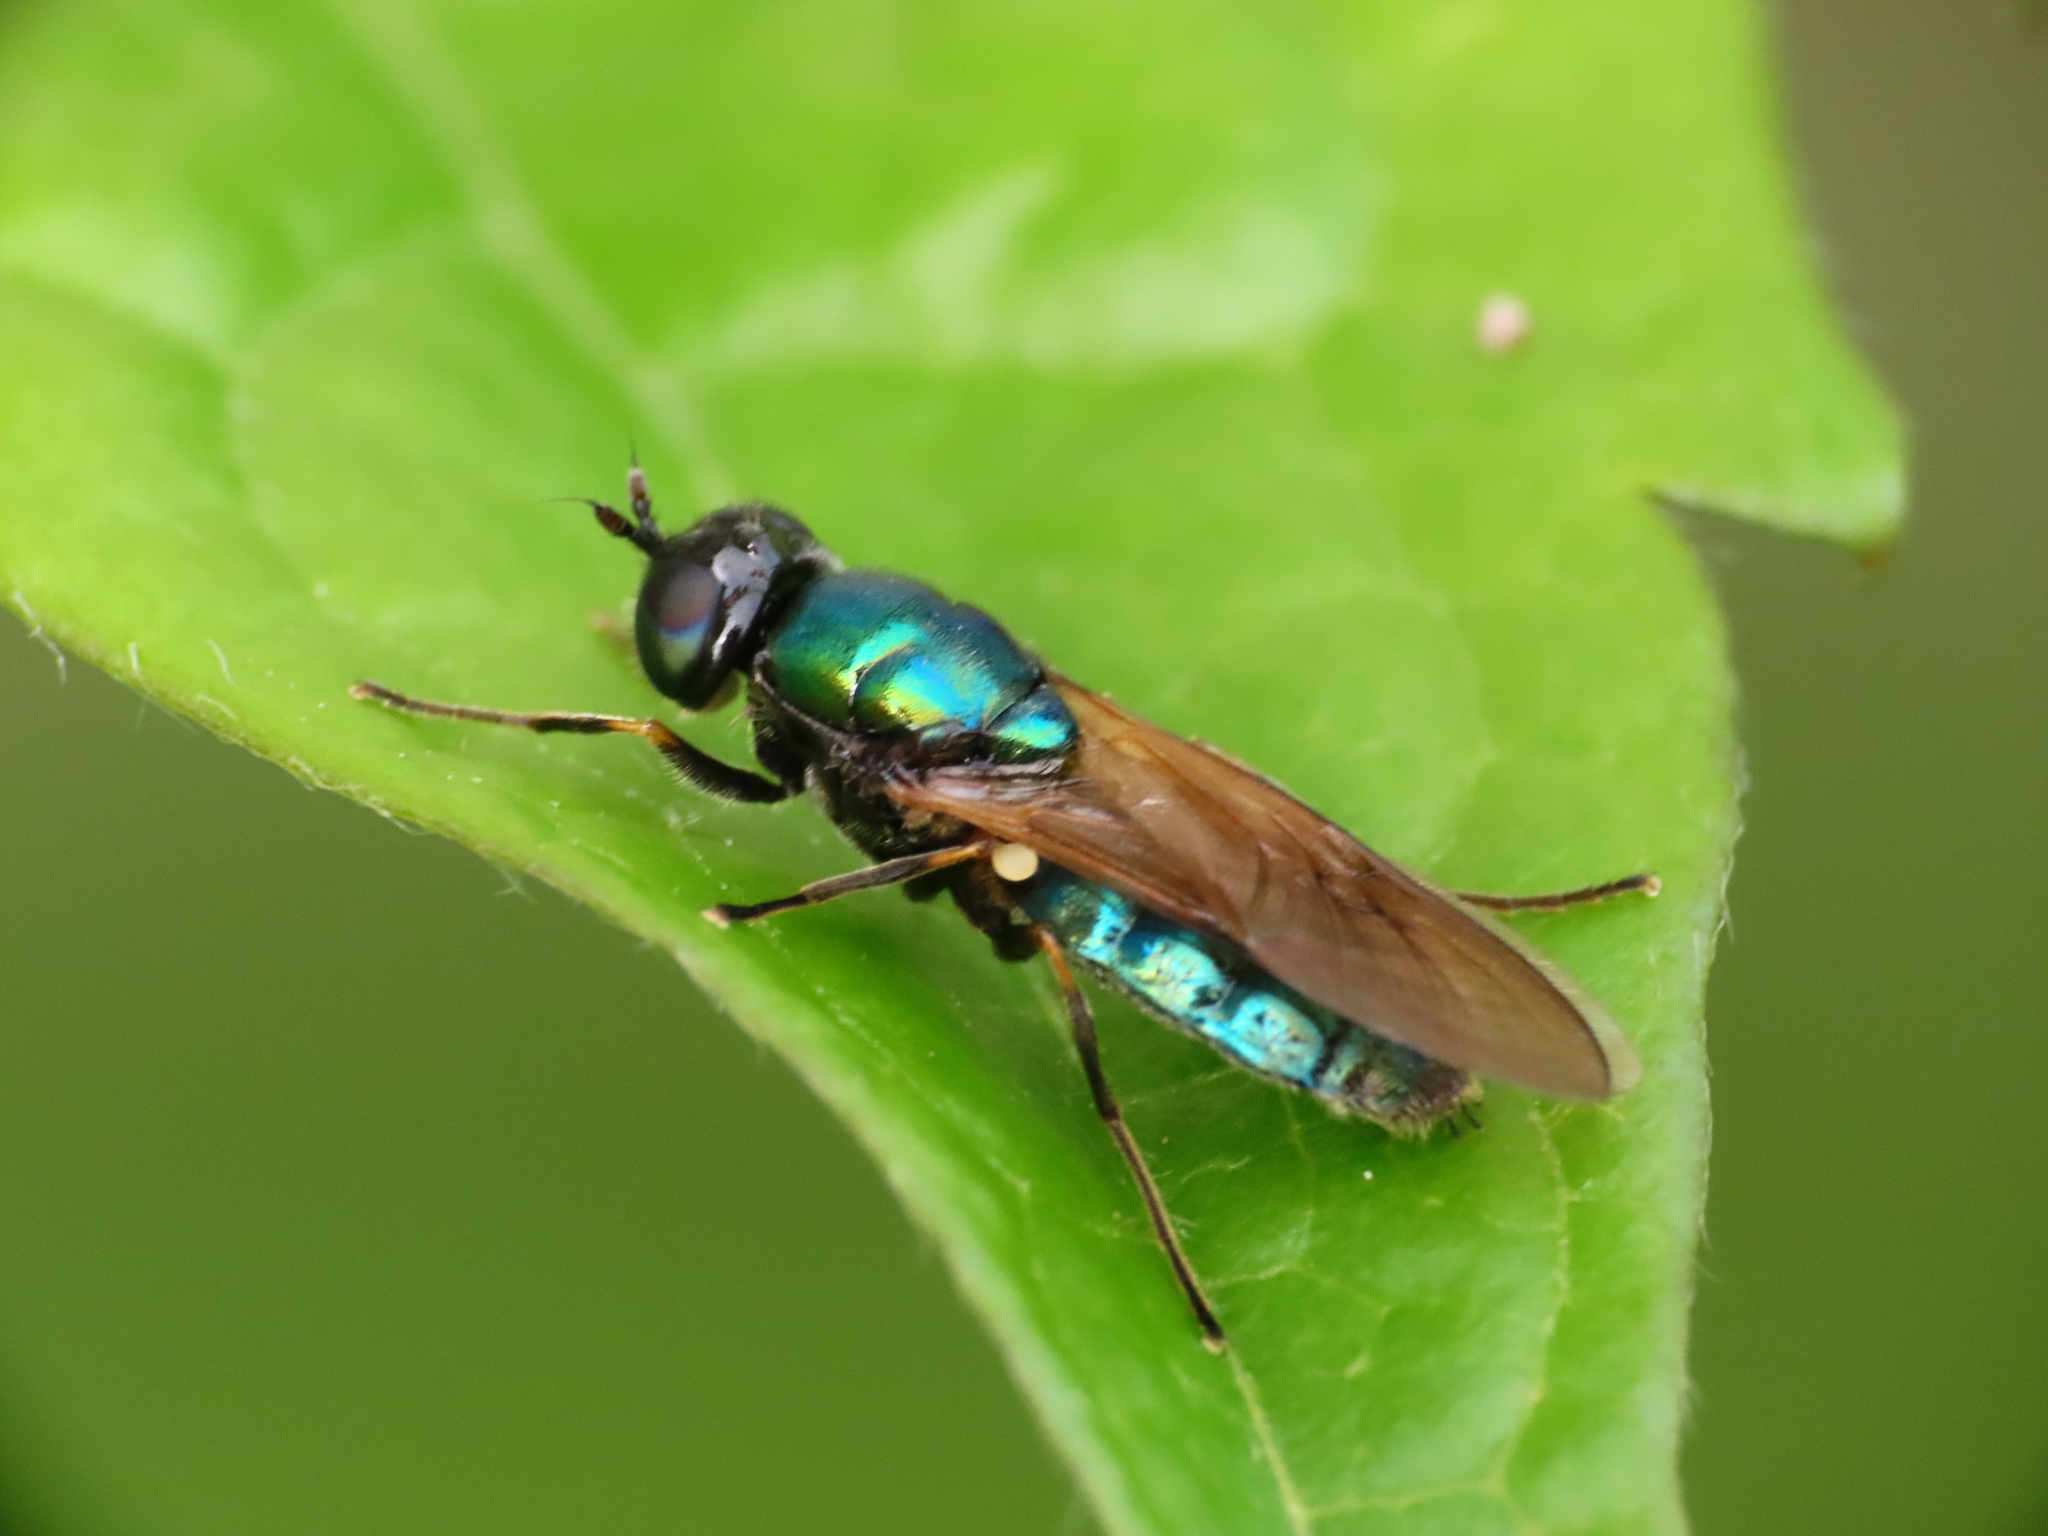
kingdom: Animalia
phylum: Arthropoda
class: Insecta
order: Diptera
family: Stratiomyidae
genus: Chloromyia
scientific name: Chloromyia formosa
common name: Soldier fly
